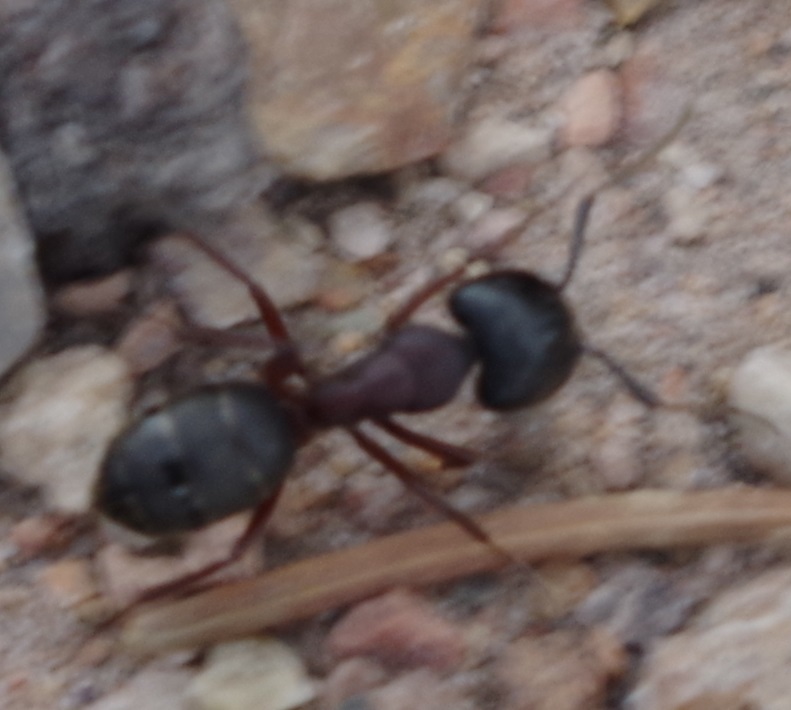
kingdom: Animalia
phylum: Arthropoda
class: Insecta
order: Hymenoptera
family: Formicidae
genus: Camponotus
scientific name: Camponotus herculeanus
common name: Hercules ant
